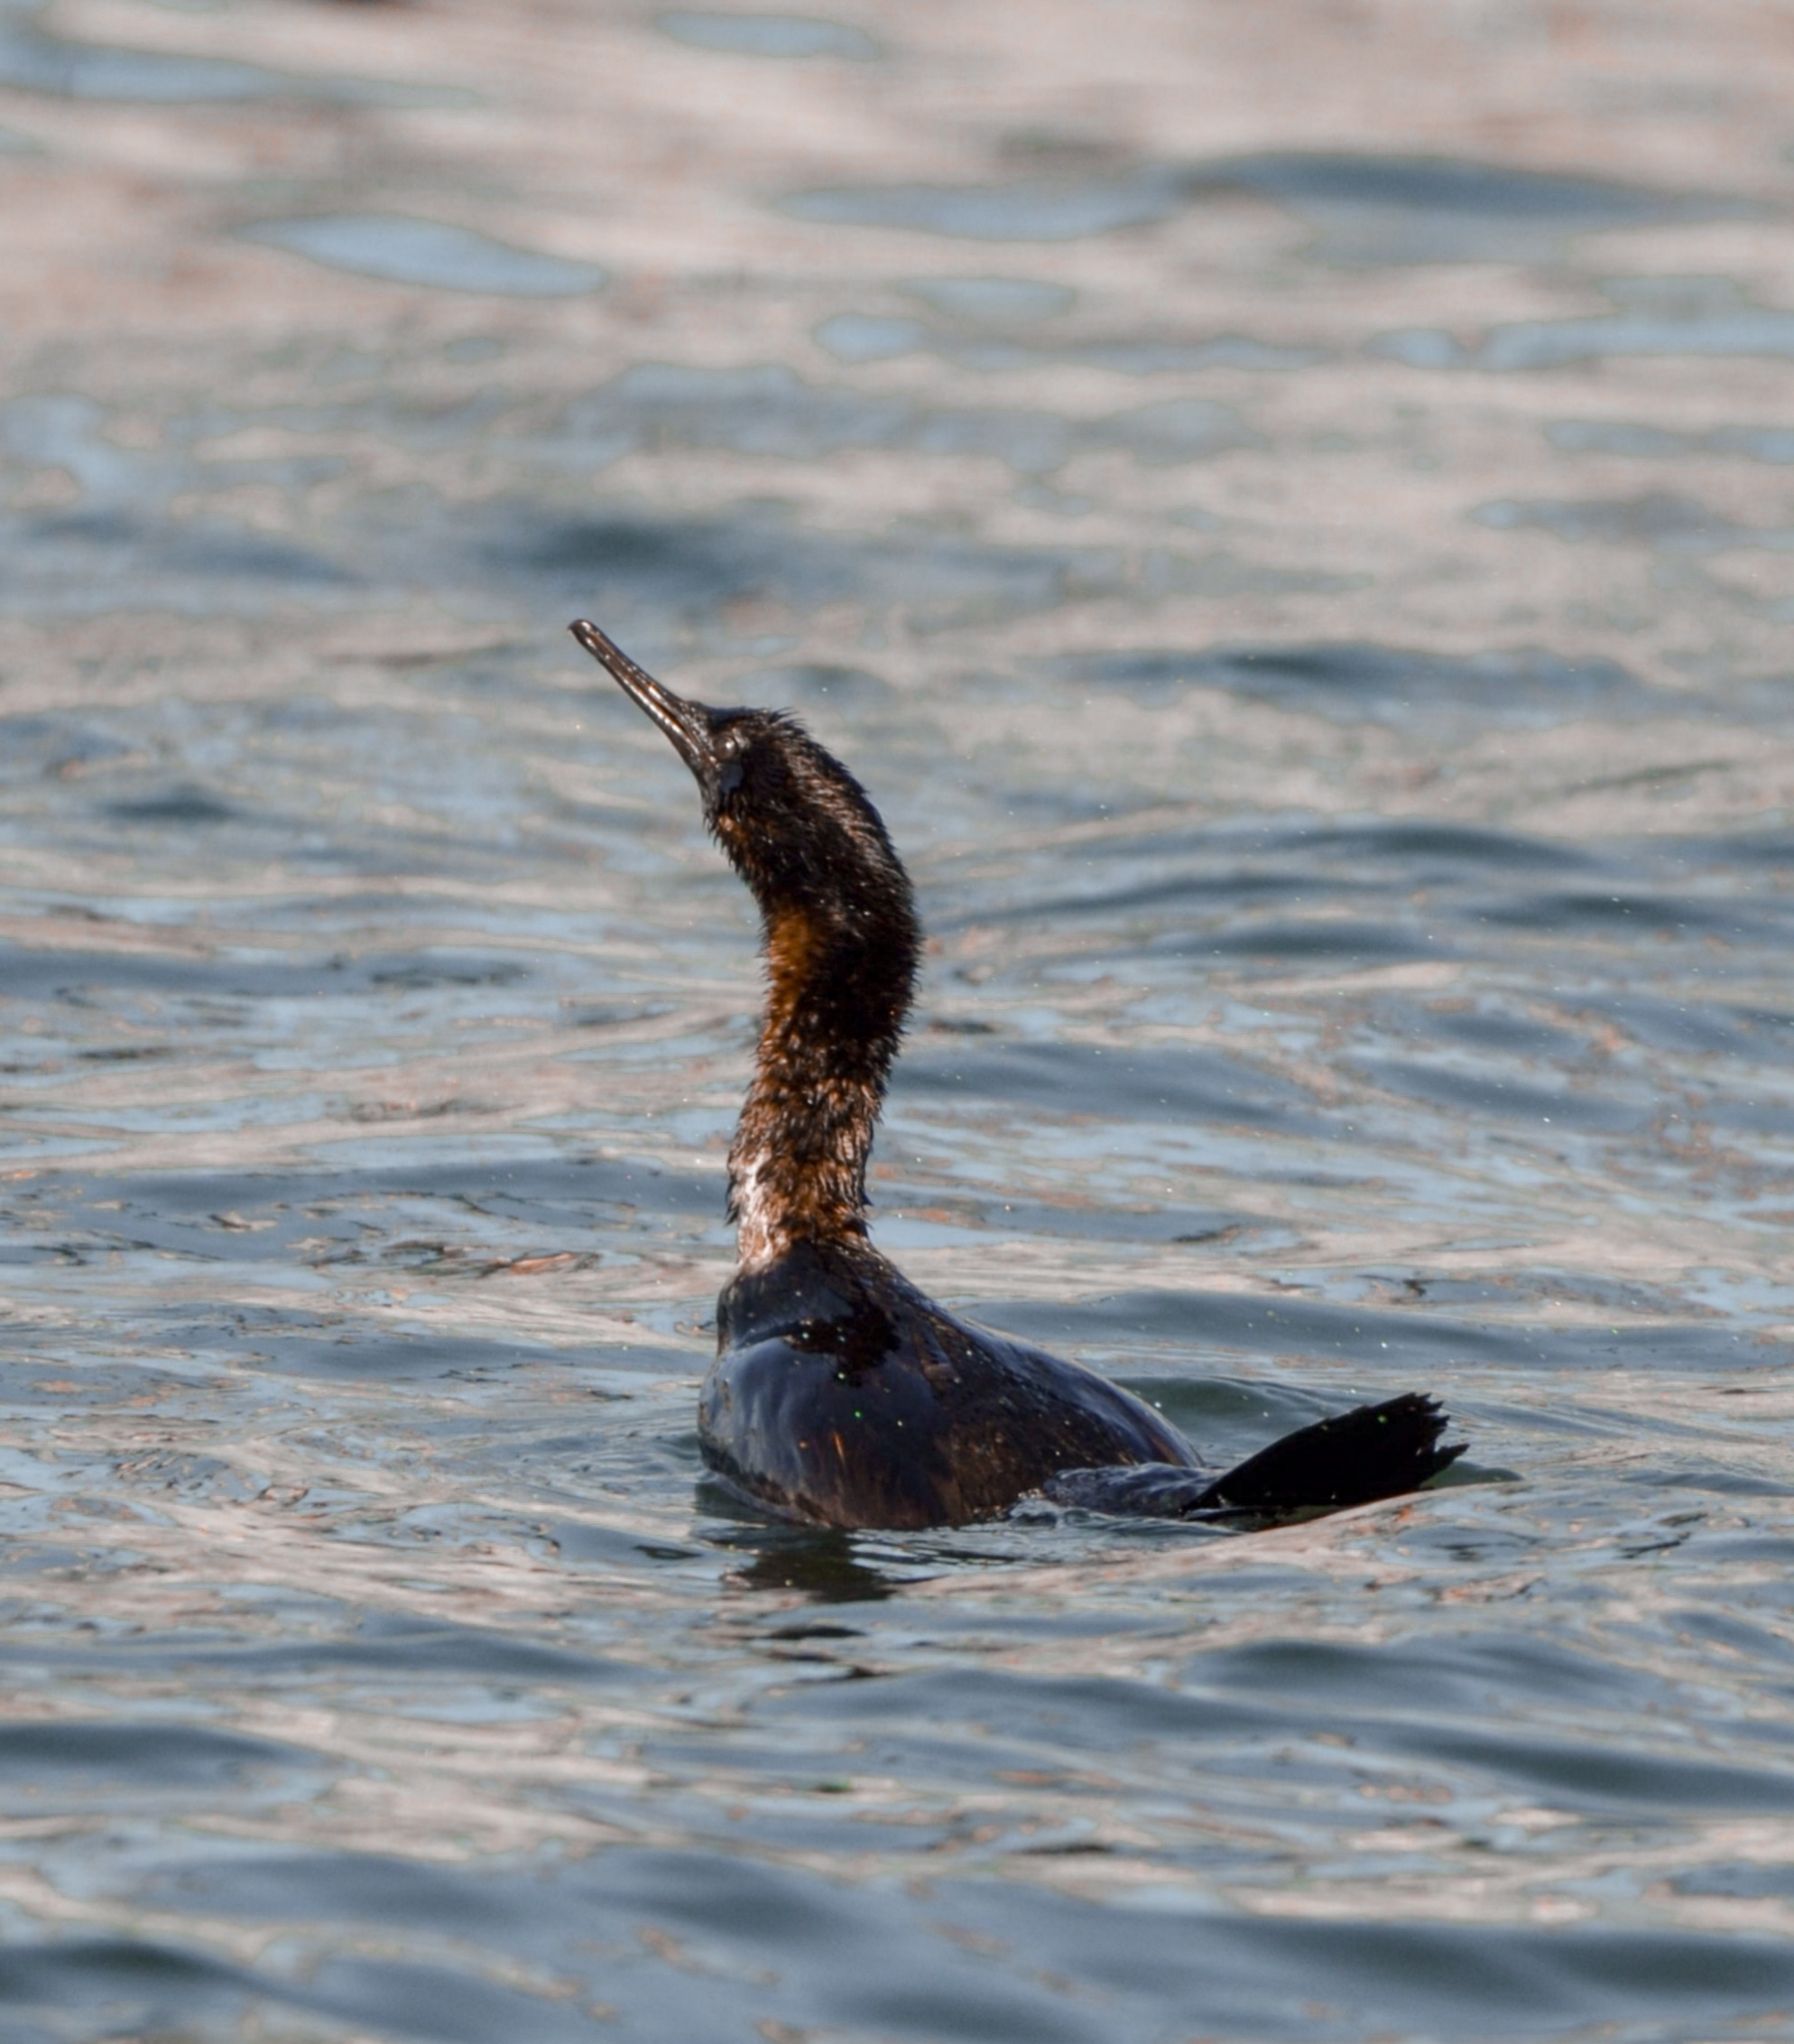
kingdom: Animalia
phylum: Chordata
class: Aves
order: Suliformes
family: Phalacrocoracidae
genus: Phalacrocorax
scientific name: Phalacrocorax pelagicus
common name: Pelagic cormorant
